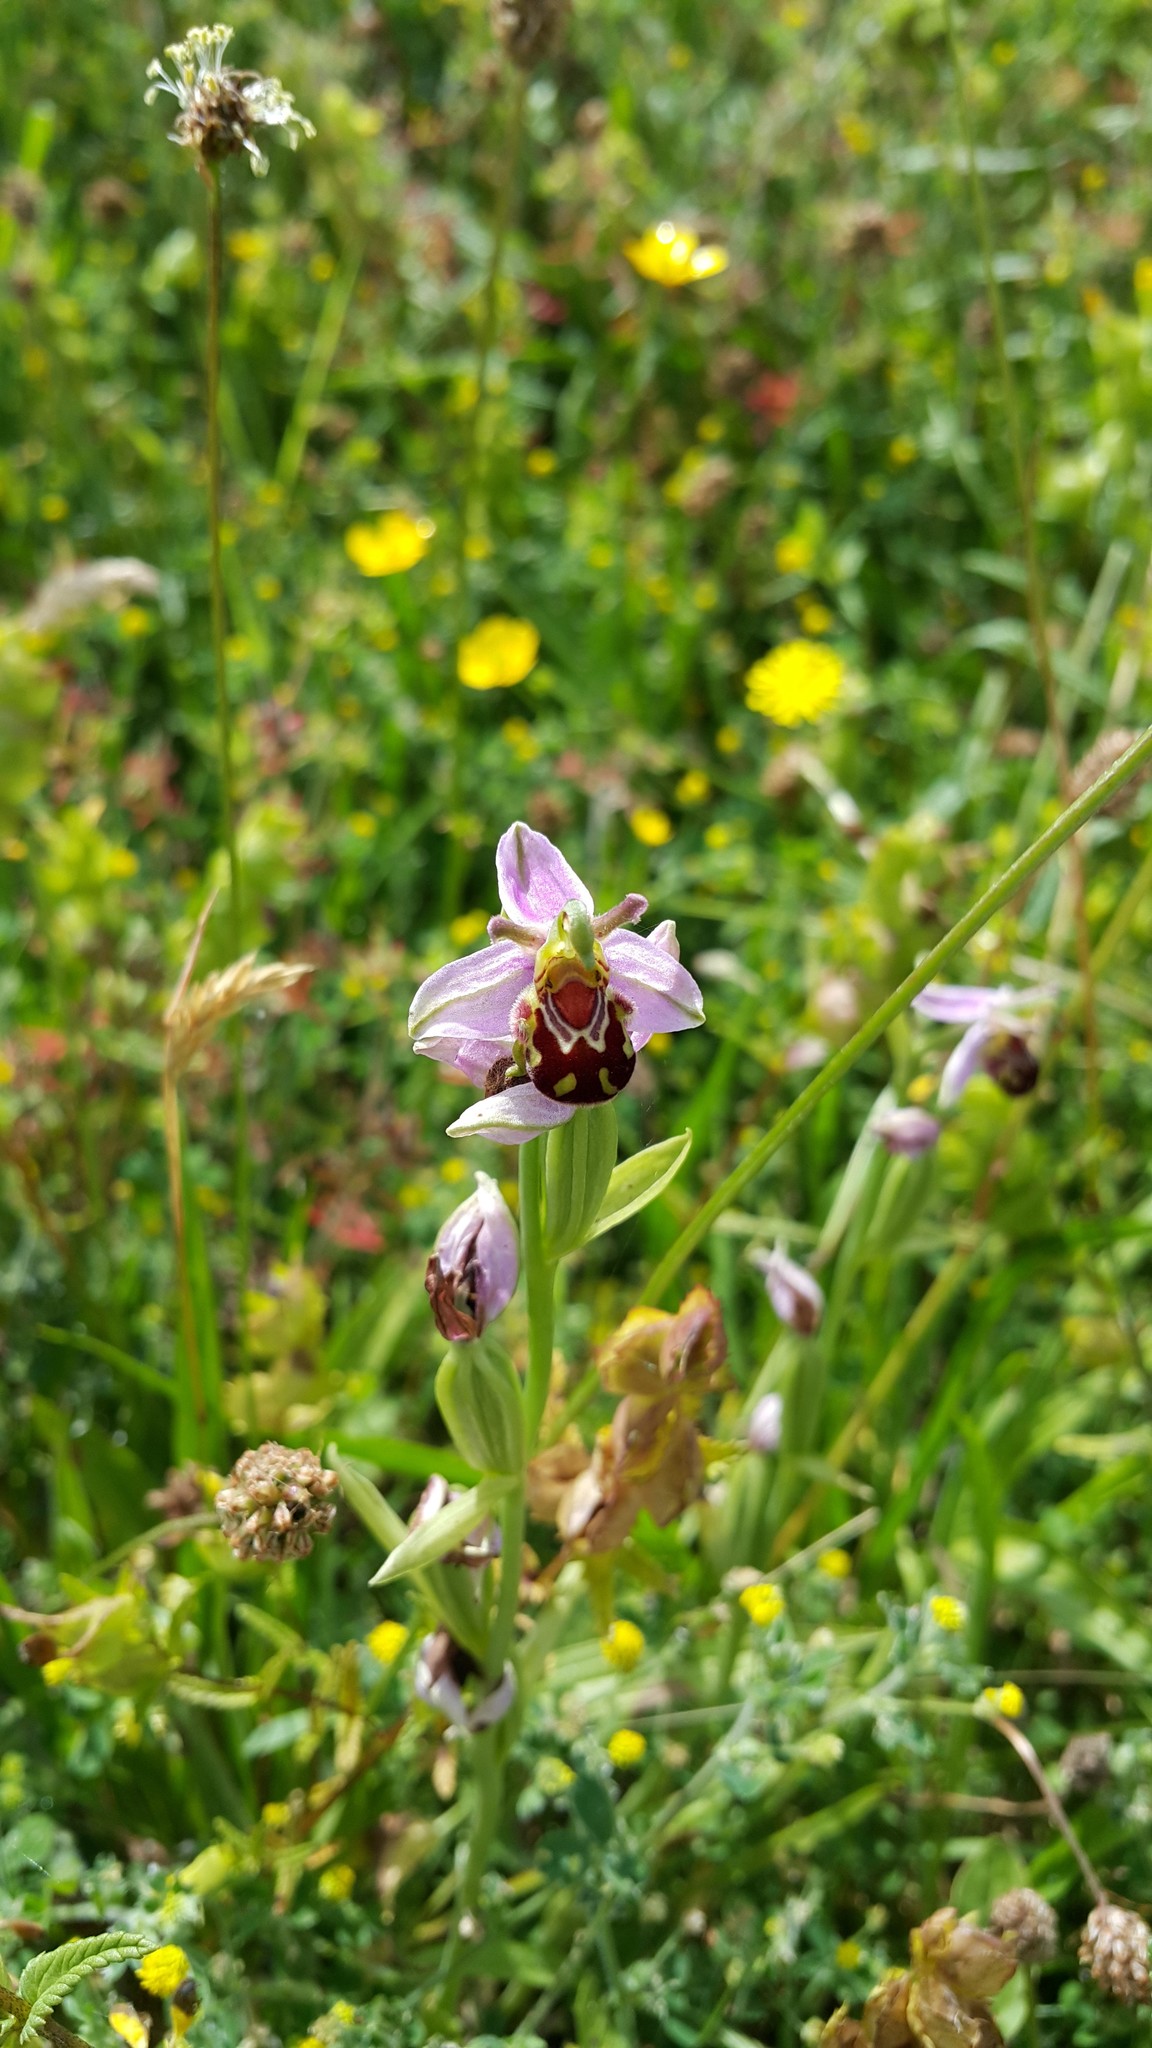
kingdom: Plantae
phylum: Tracheophyta
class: Liliopsida
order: Asparagales
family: Orchidaceae
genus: Ophrys
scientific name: Ophrys apifera
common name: Bee orchid
